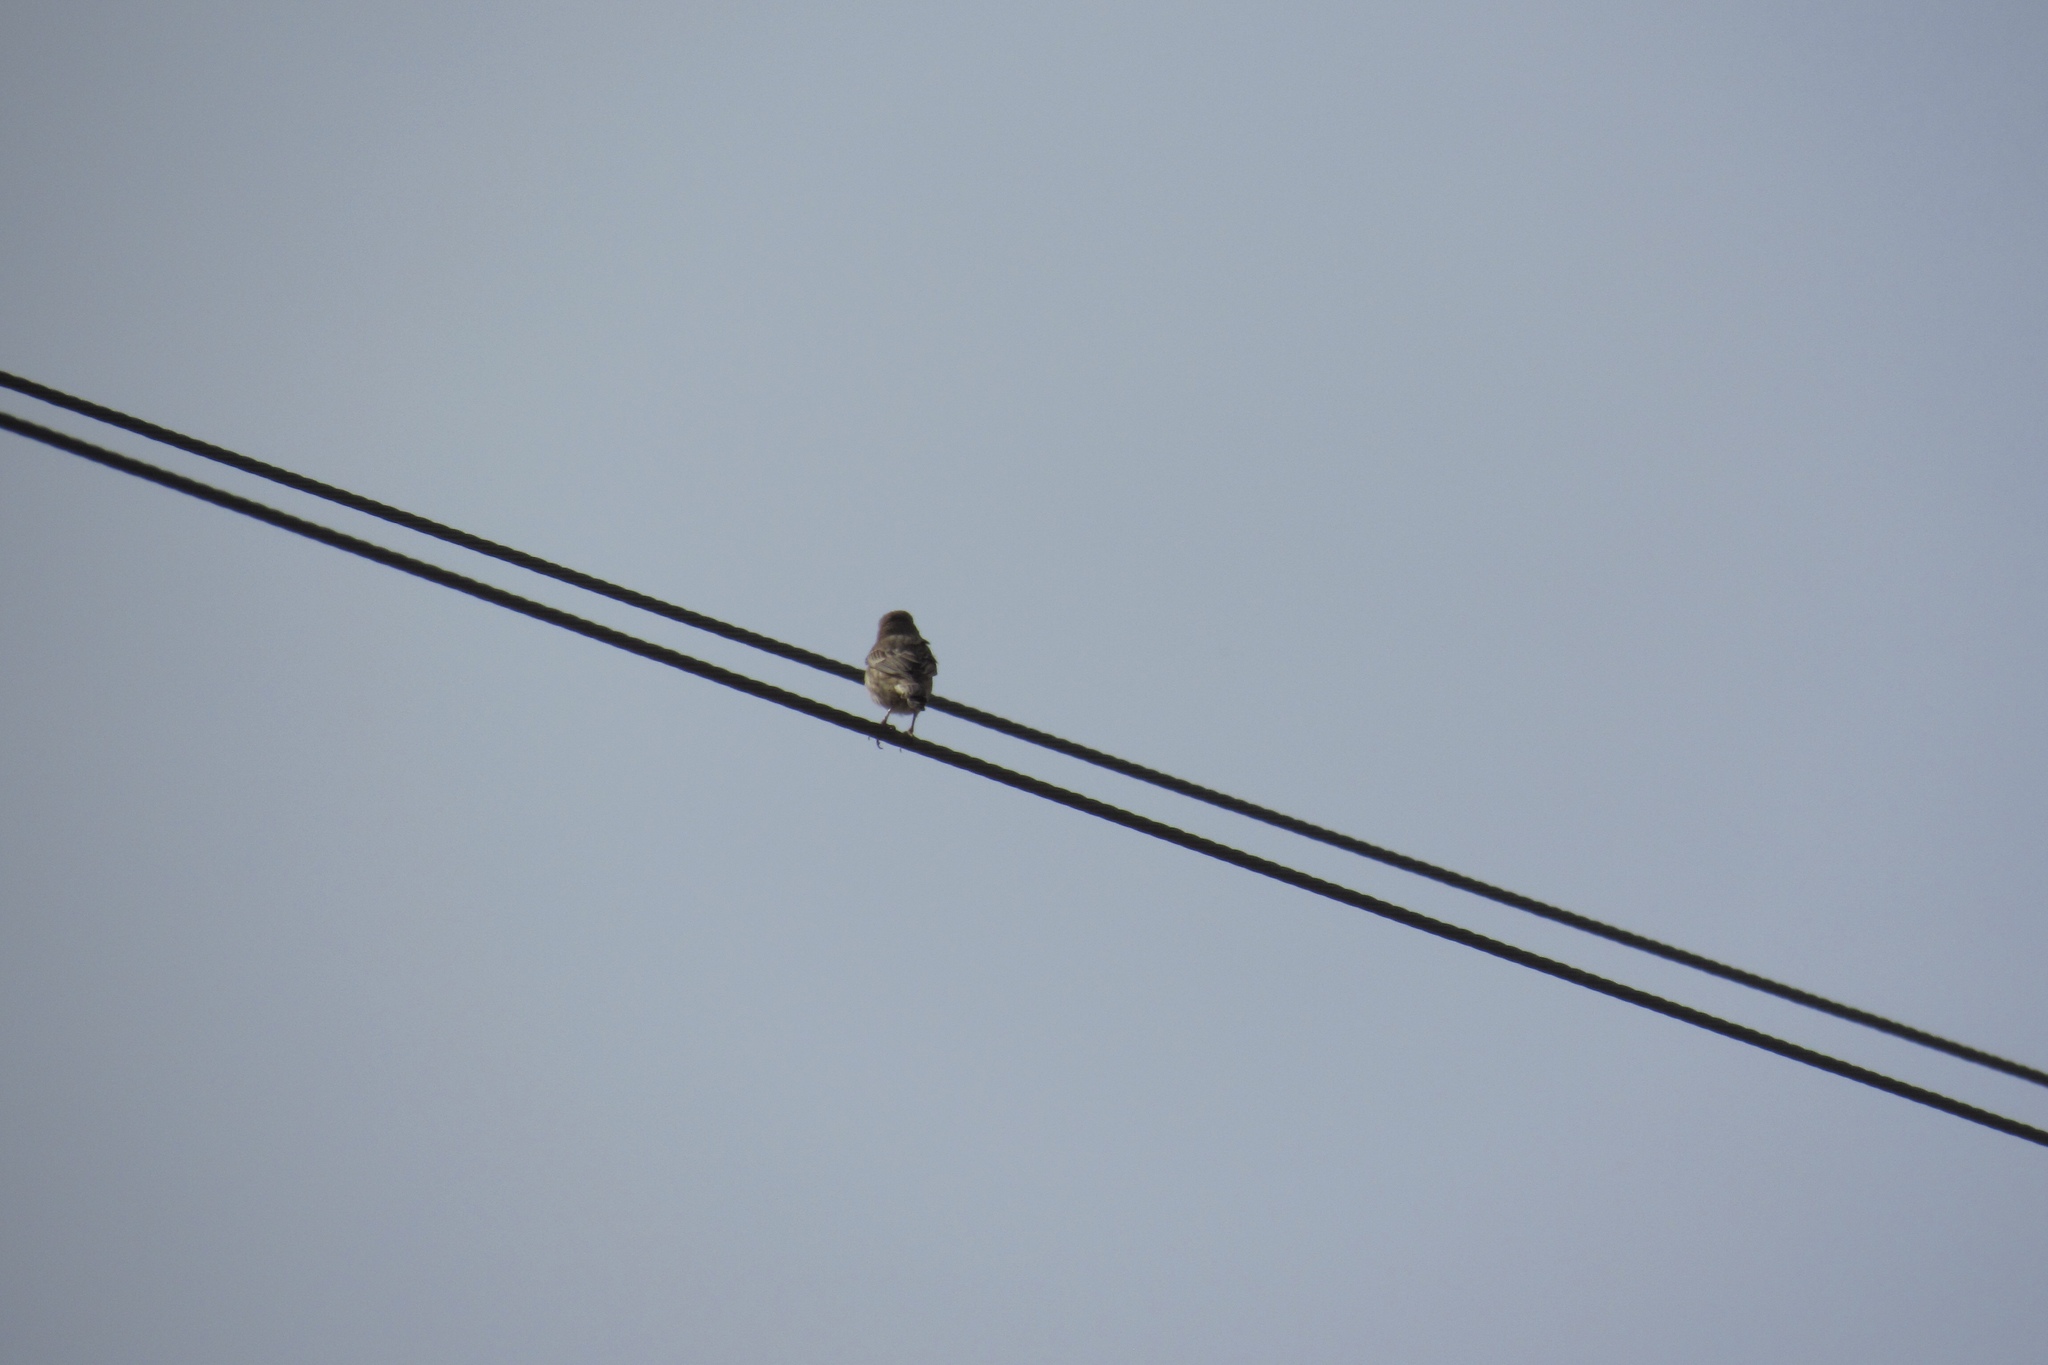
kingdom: Animalia
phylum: Chordata
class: Aves
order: Passeriformes
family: Fringillidae
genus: Haemorhous
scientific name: Haemorhous mexicanus
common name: House finch
